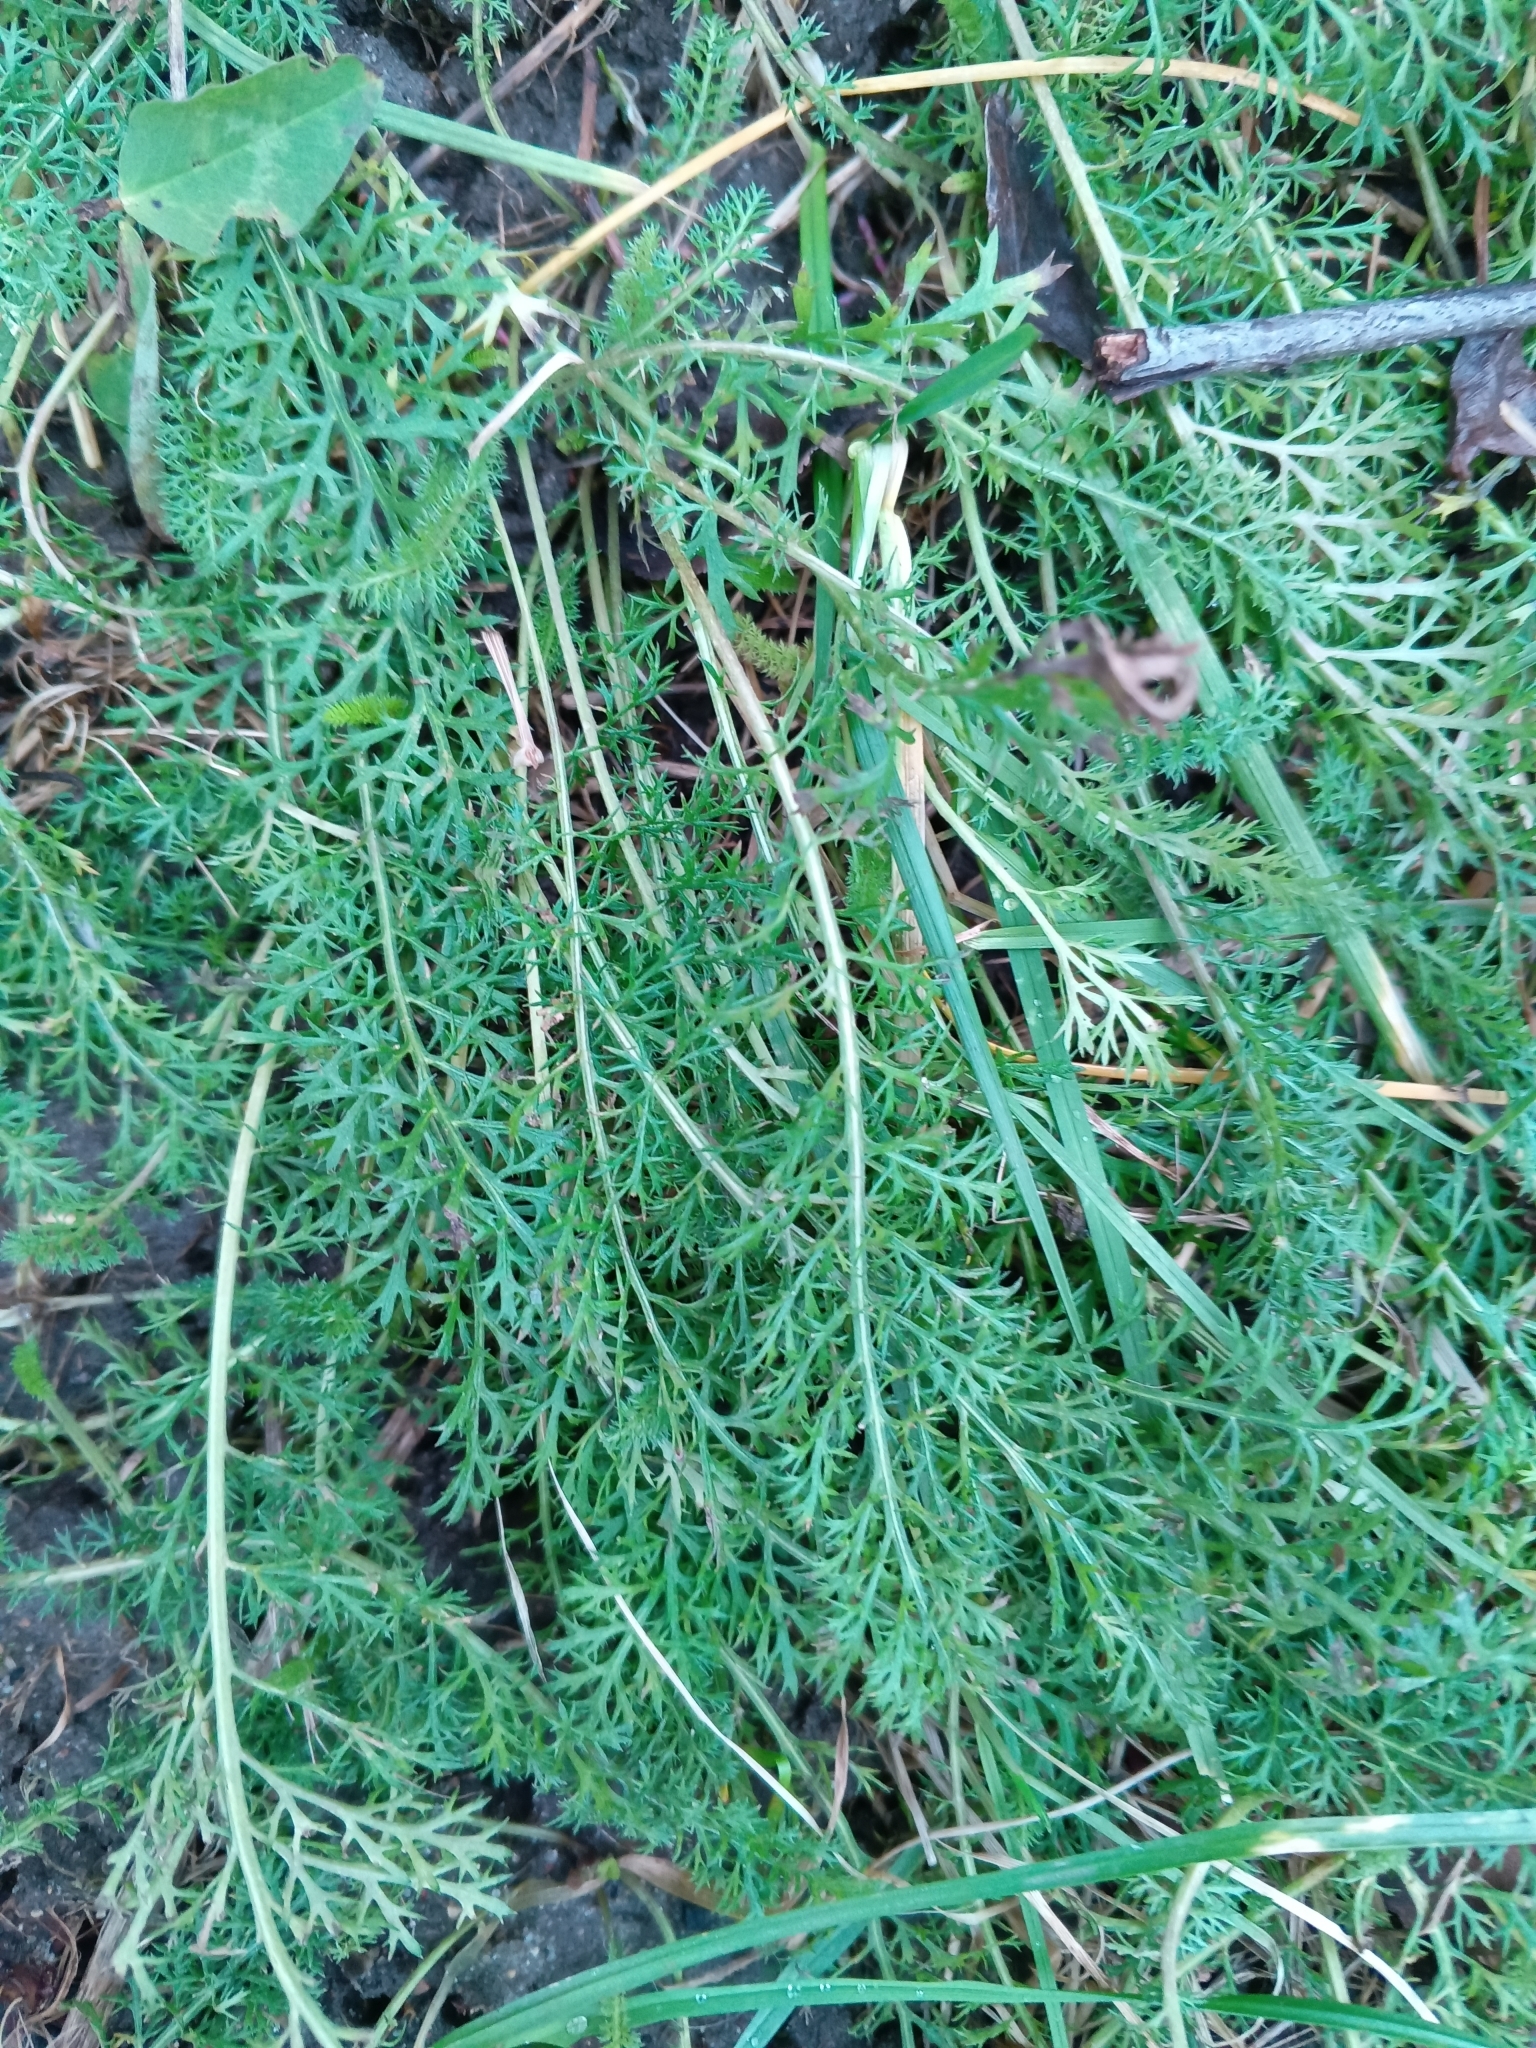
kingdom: Plantae
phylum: Tracheophyta
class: Magnoliopsida
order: Asterales
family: Asteraceae
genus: Achillea
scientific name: Achillea millefolium
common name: Yarrow
